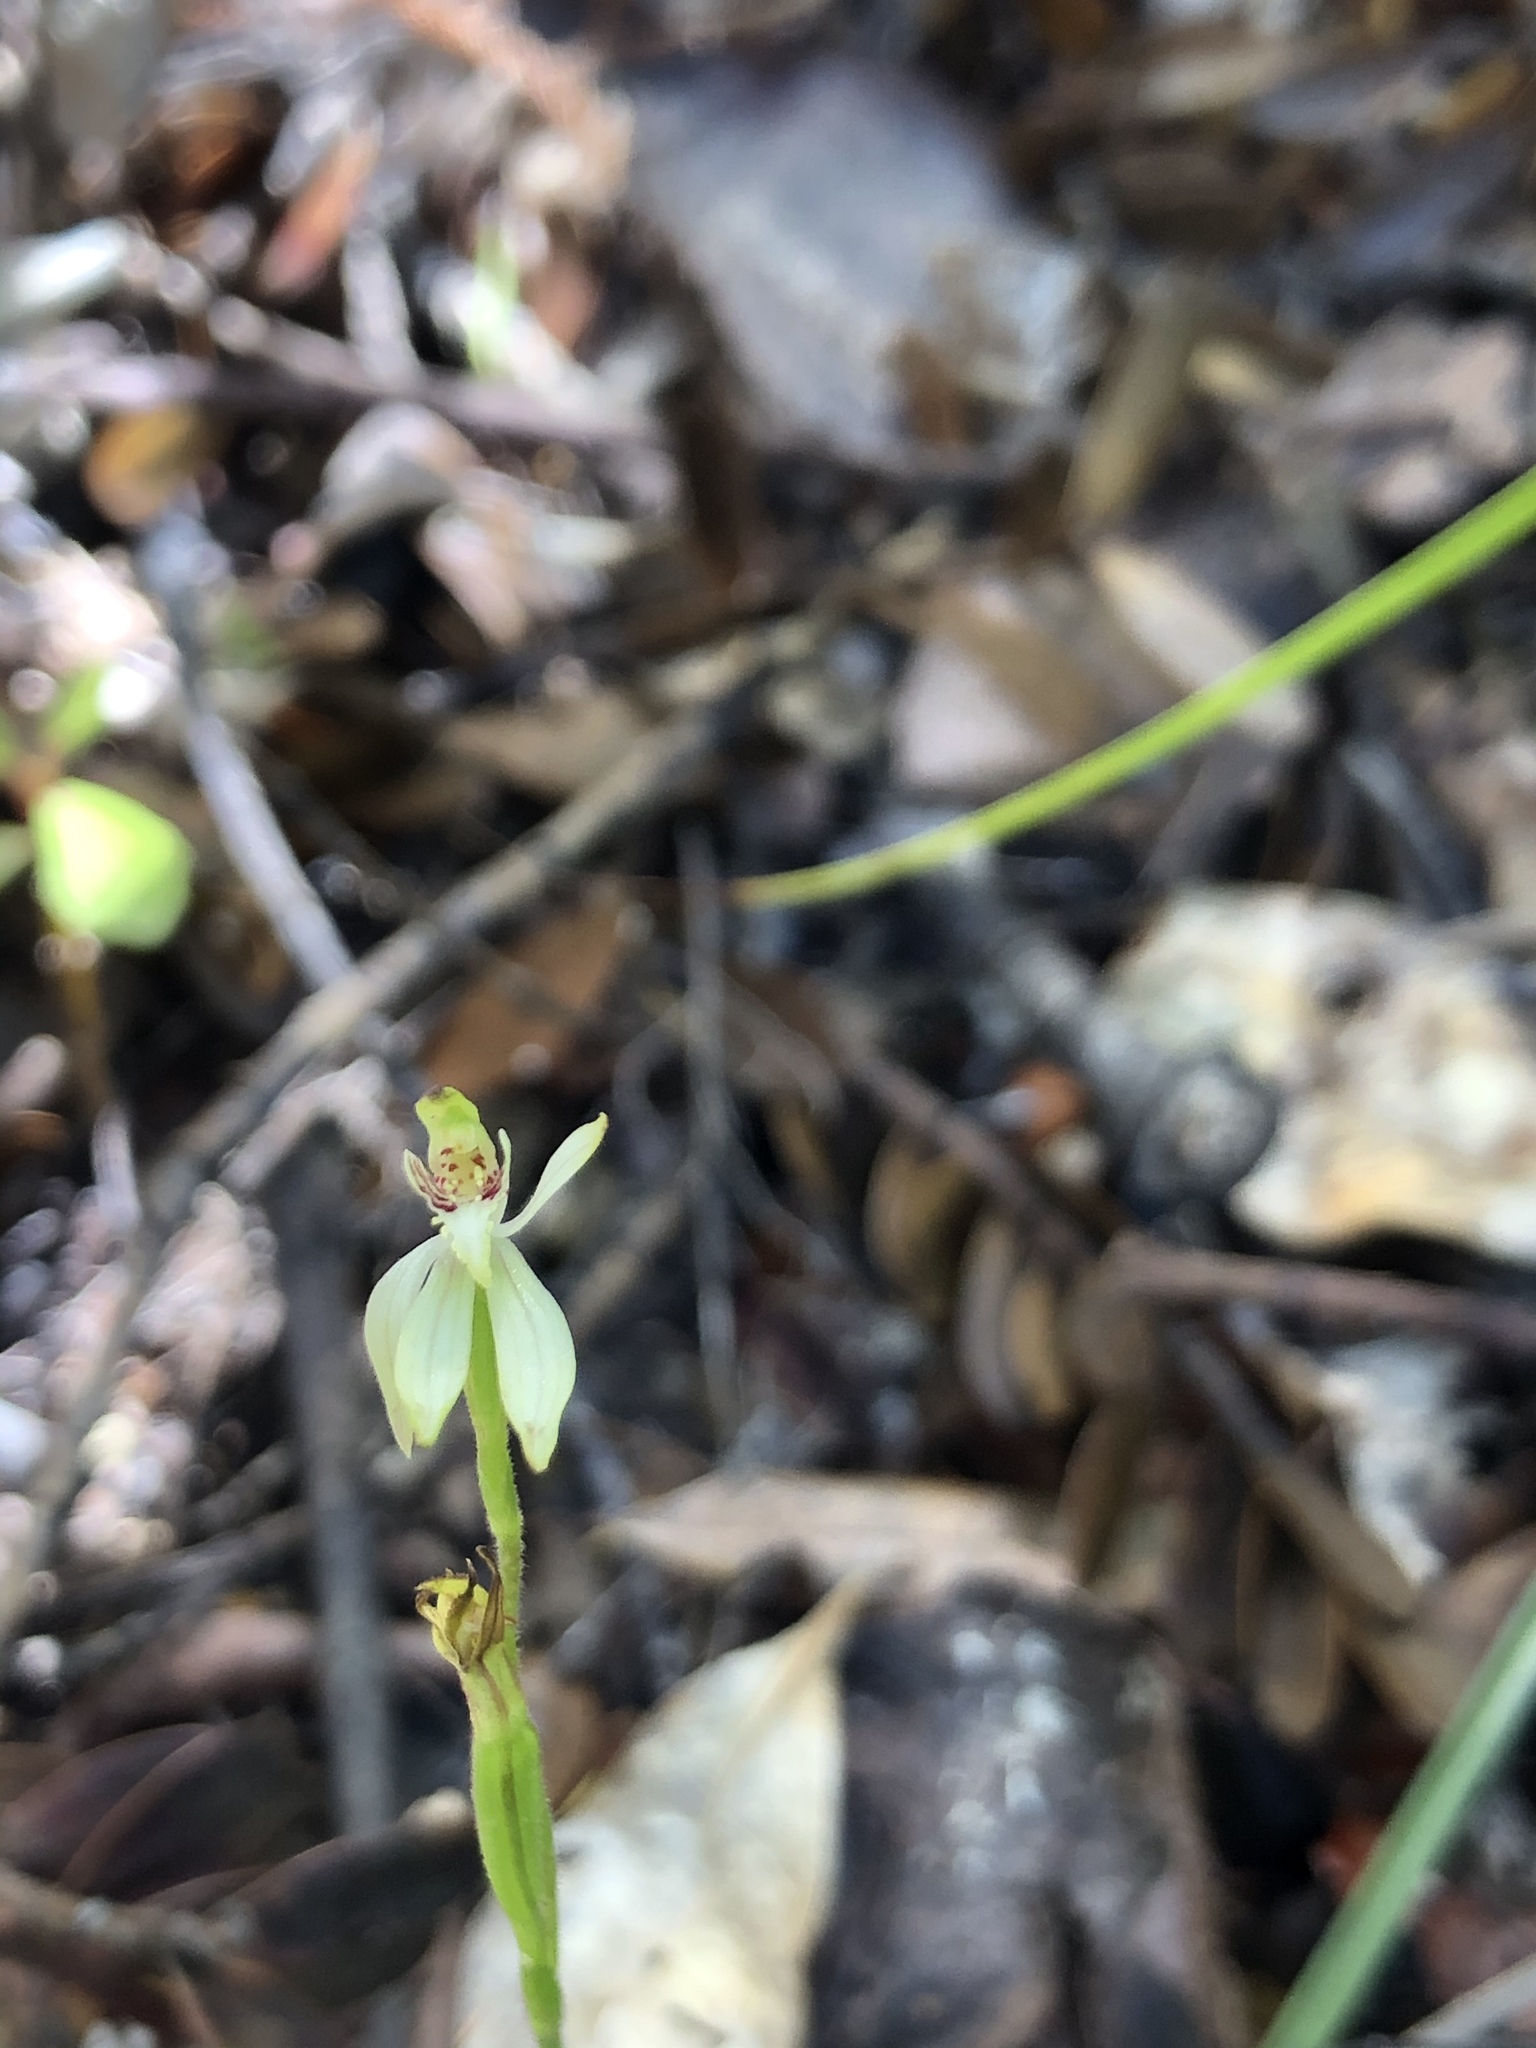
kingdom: Plantae
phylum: Tracheophyta
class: Liliopsida
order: Asparagales
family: Orchidaceae
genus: Caladenia
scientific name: Caladenia chlorostyla
